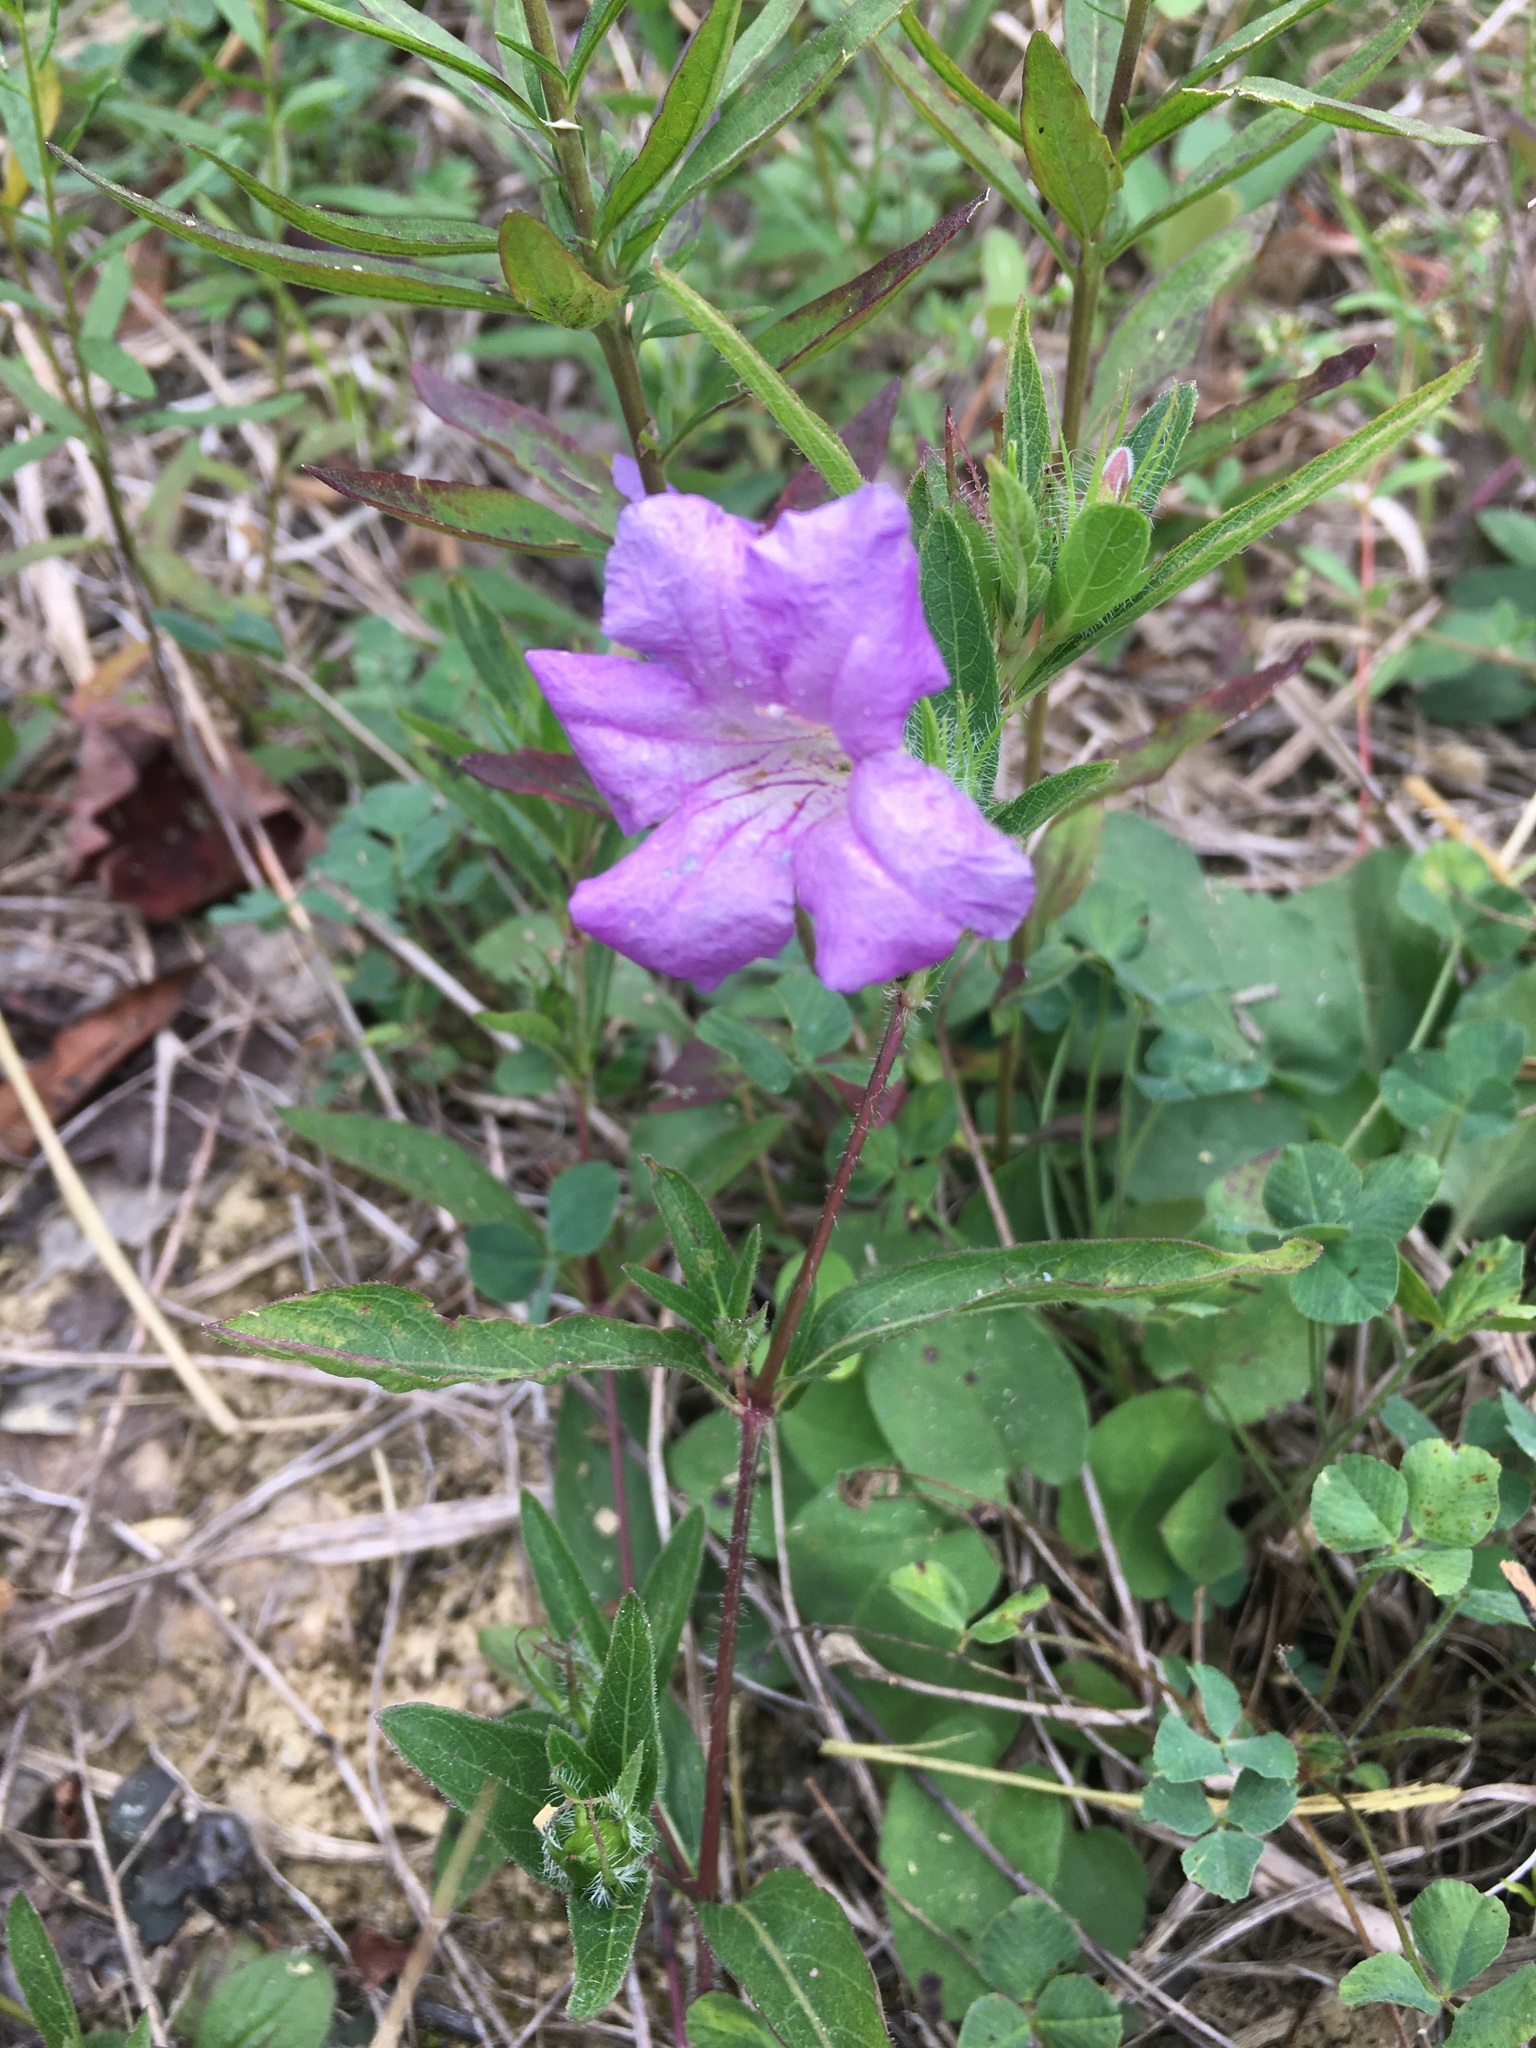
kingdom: Plantae
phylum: Tracheophyta
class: Magnoliopsida
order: Lamiales
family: Acanthaceae
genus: Ruellia
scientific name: Ruellia humilis
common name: Fringe-leaf ruellia
